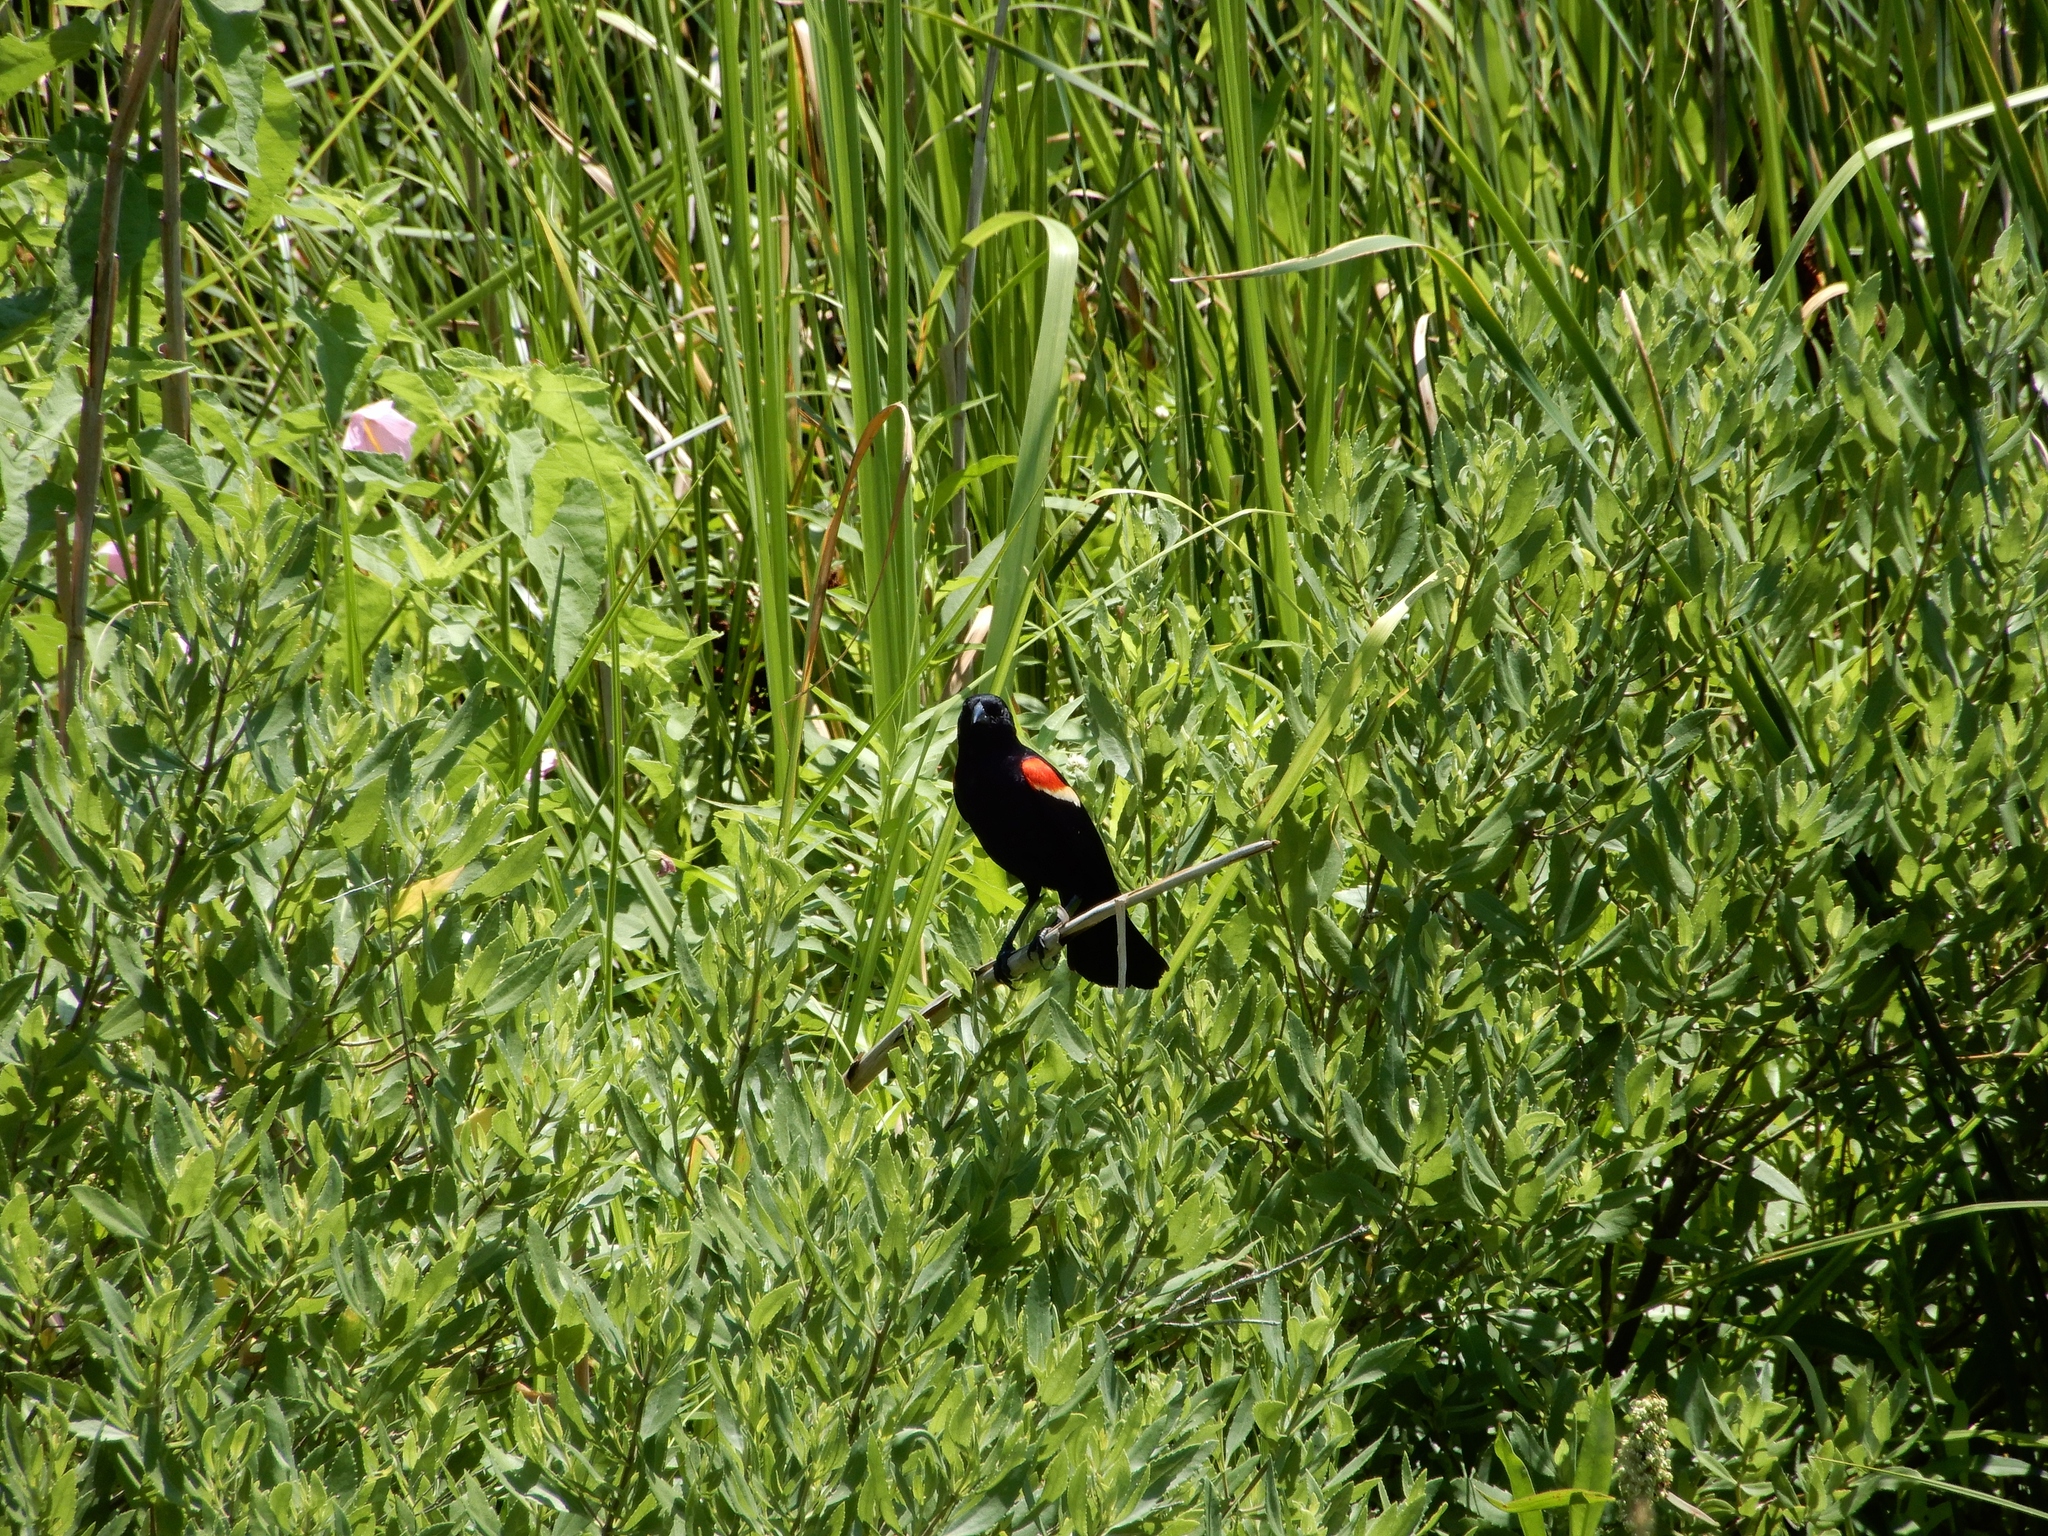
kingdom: Animalia
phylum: Chordata
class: Aves
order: Passeriformes
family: Icteridae
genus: Agelaius
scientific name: Agelaius phoeniceus
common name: Red-winged blackbird
